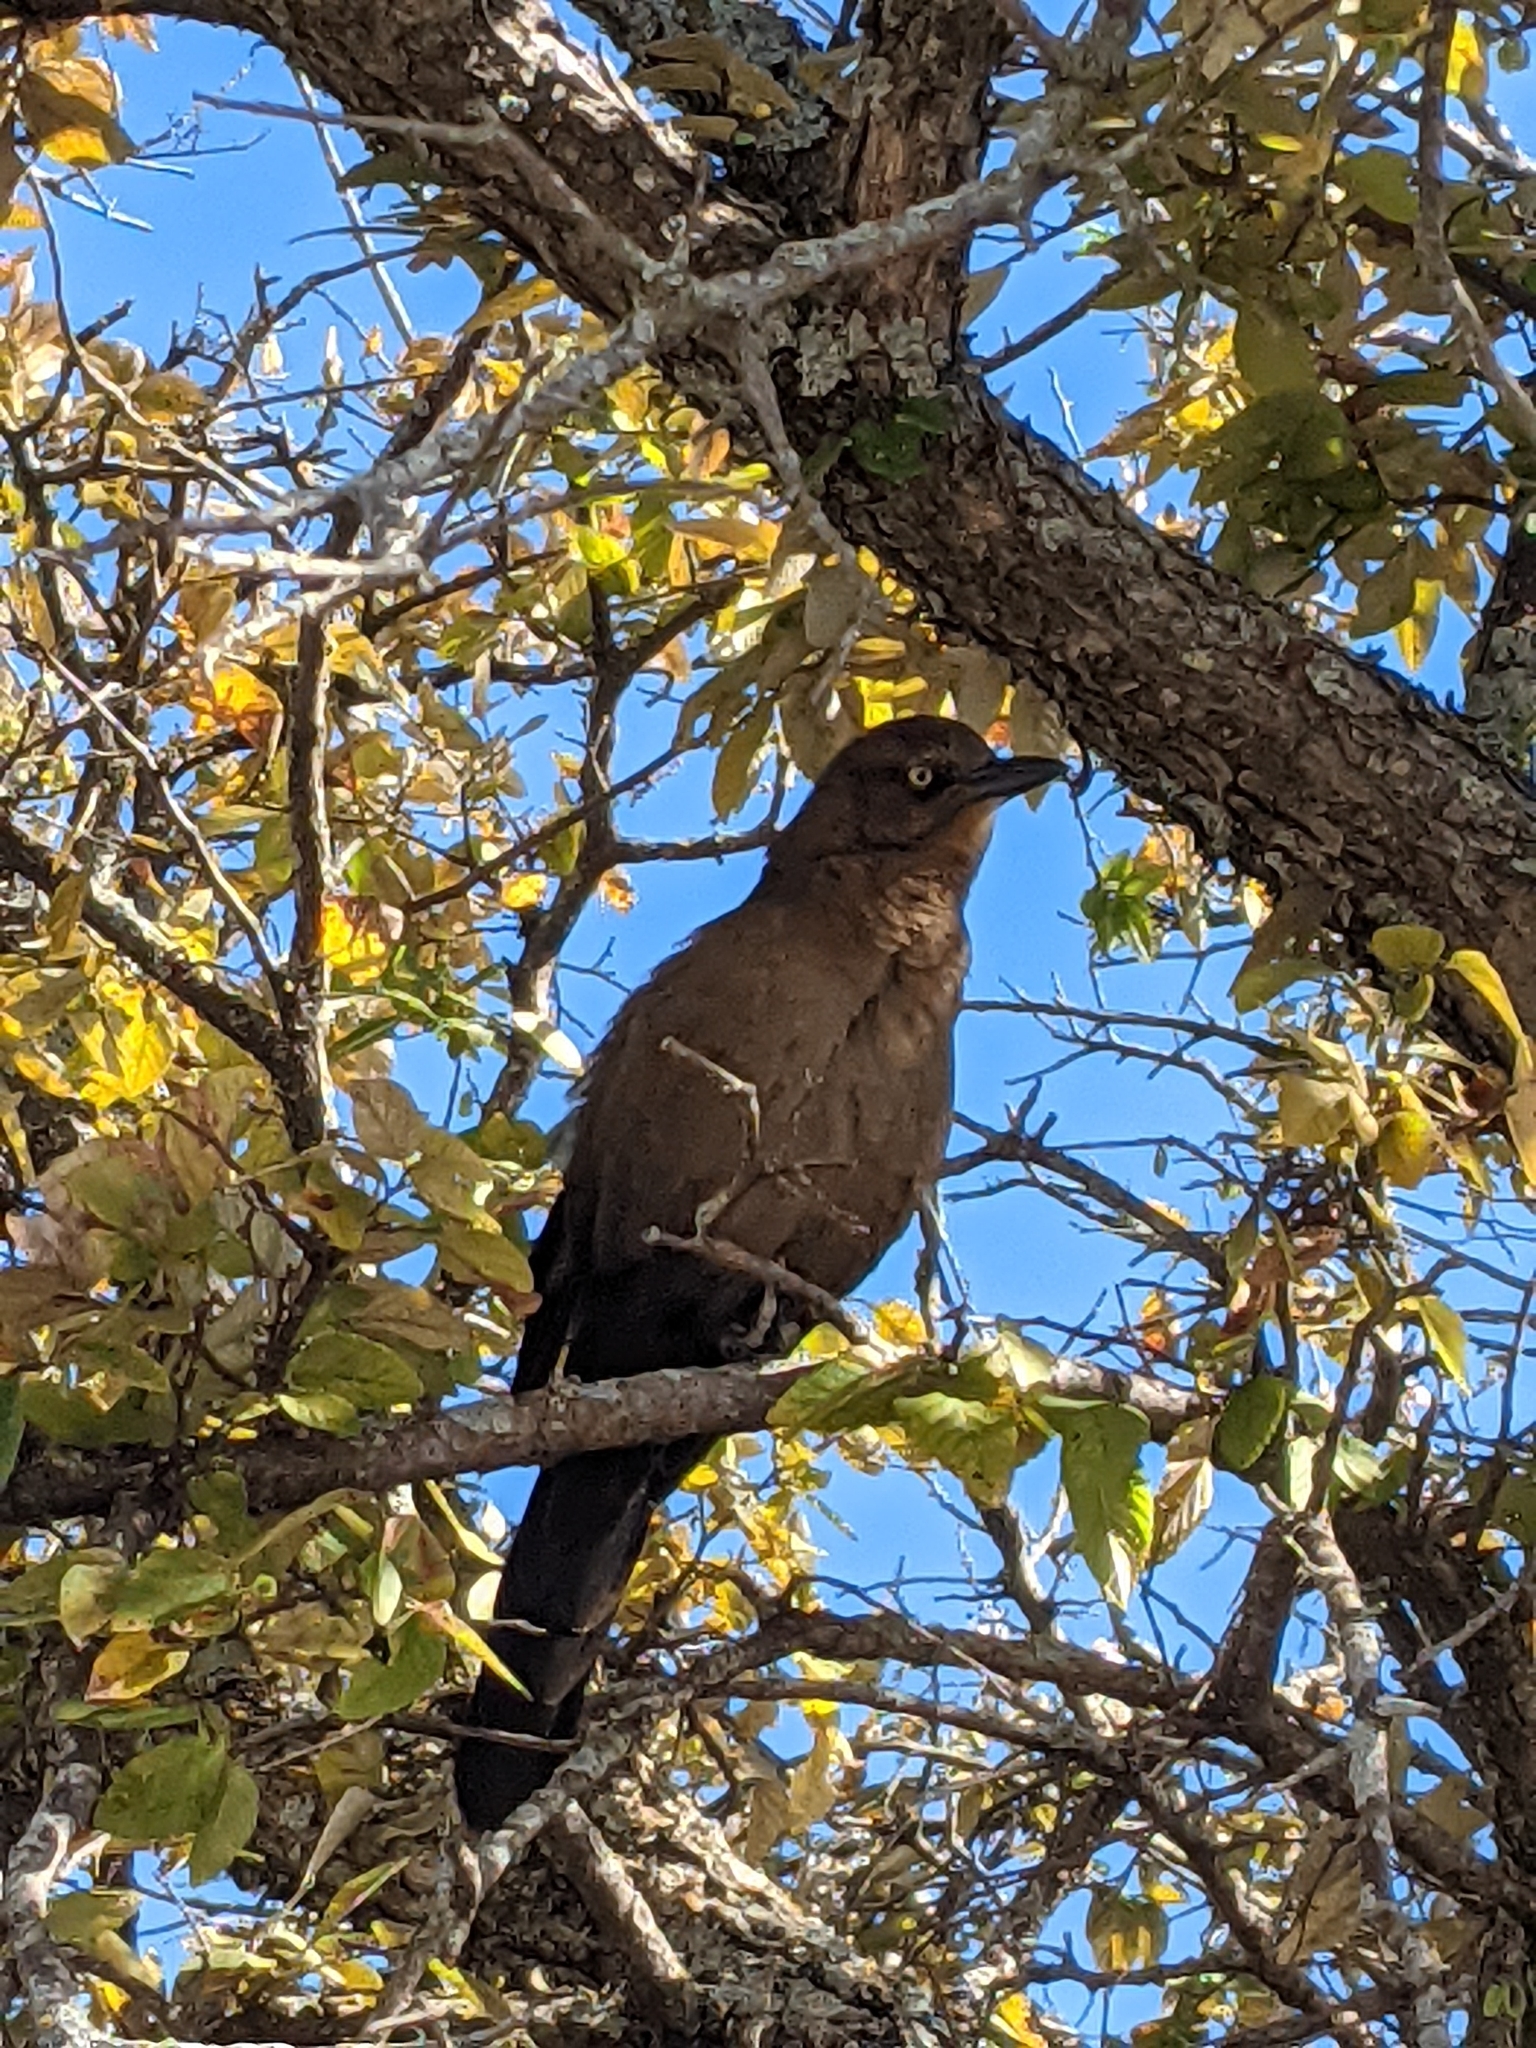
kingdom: Animalia
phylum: Chordata
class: Aves
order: Passeriformes
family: Icteridae
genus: Quiscalus
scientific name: Quiscalus mexicanus
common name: Great-tailed grackle
